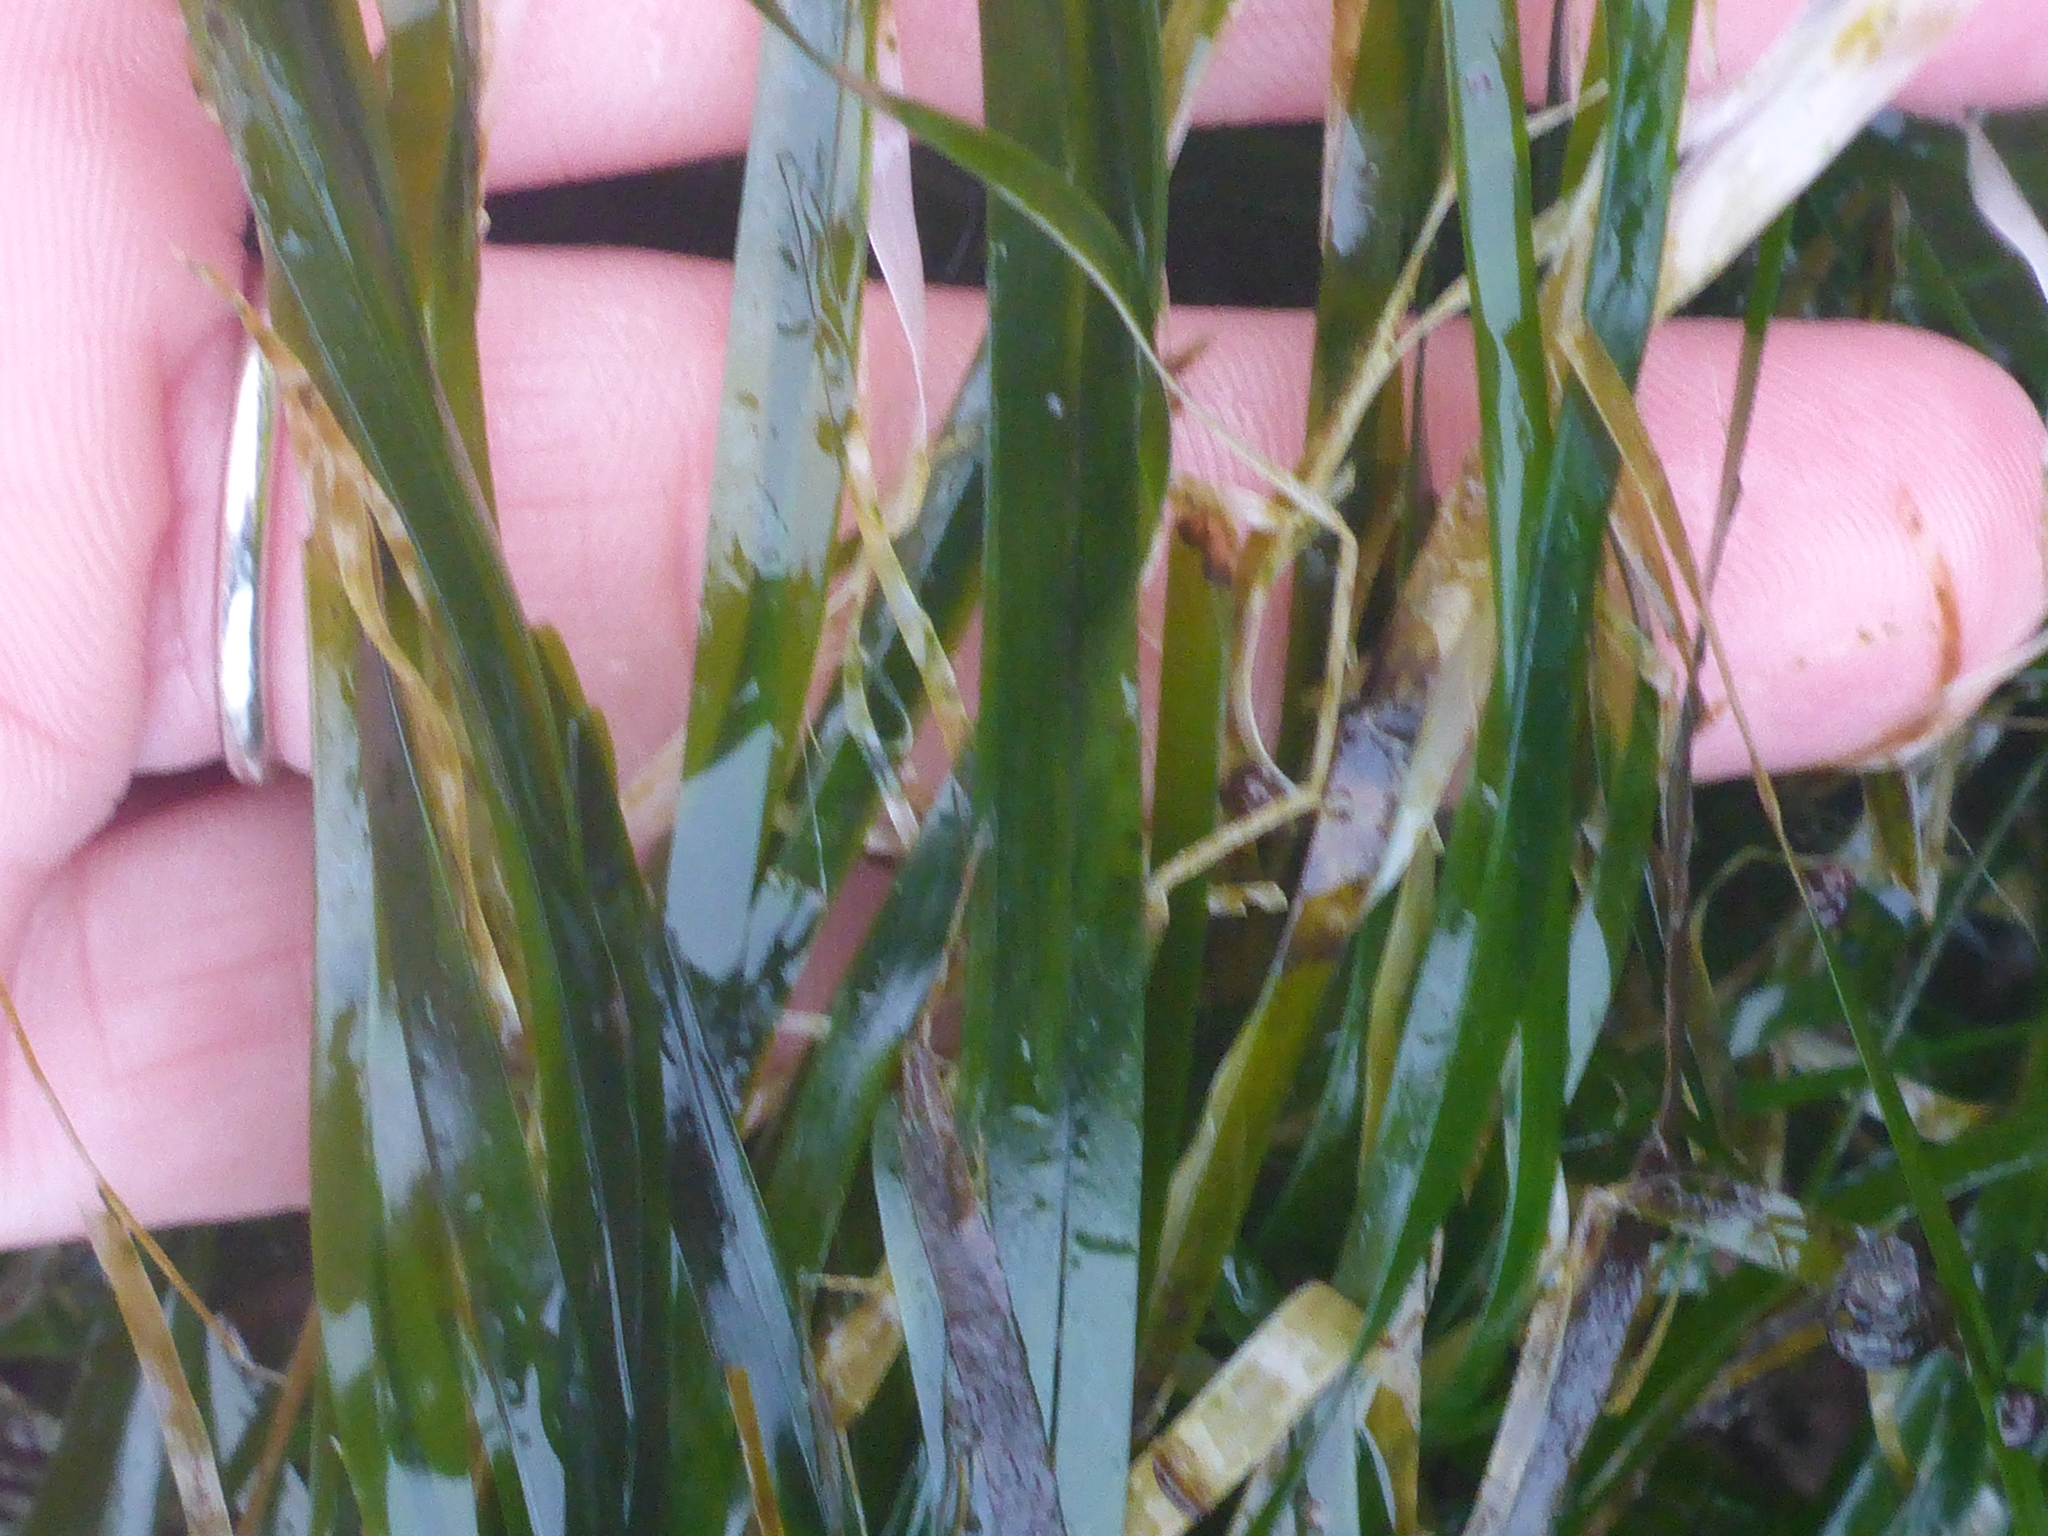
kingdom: Plantae
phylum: Tracheophyta
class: Liliopsida
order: Alismatales
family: Zosteraceae
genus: Phyllospadix
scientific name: Phyllospadix scouleri
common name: Species code: ps
